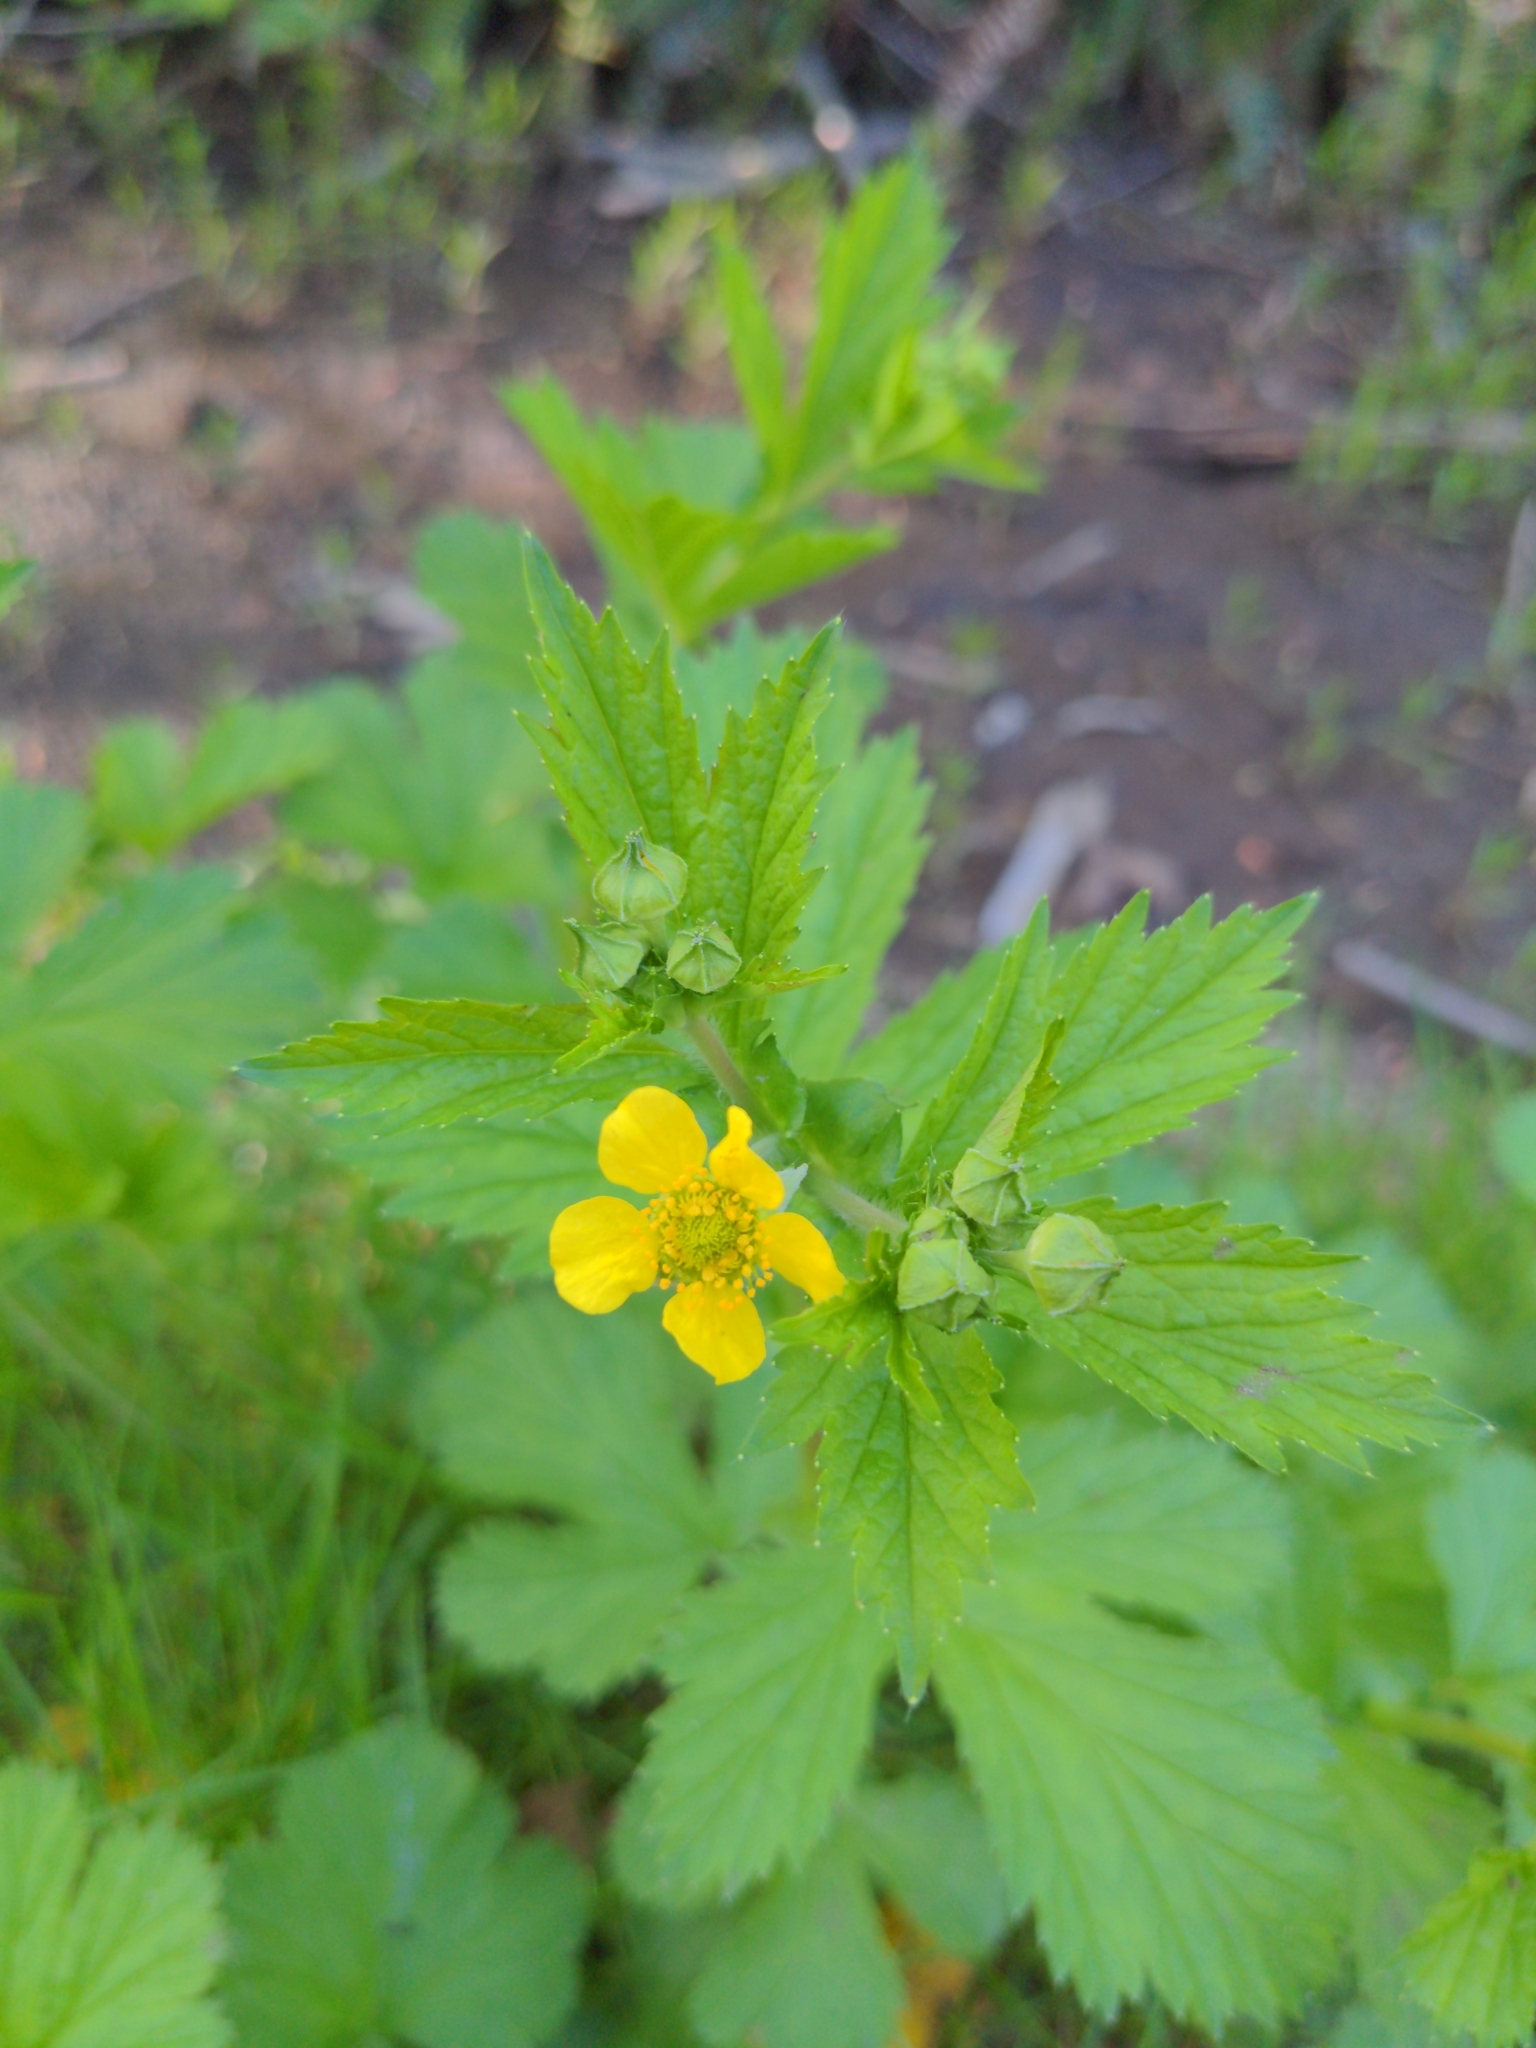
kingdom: Plantae
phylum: Tracheophyta
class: Magnoliopsida
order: Rosales
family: Rosaceae
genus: Geum
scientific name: Geum macrophyllum
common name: Large-leaved avens
